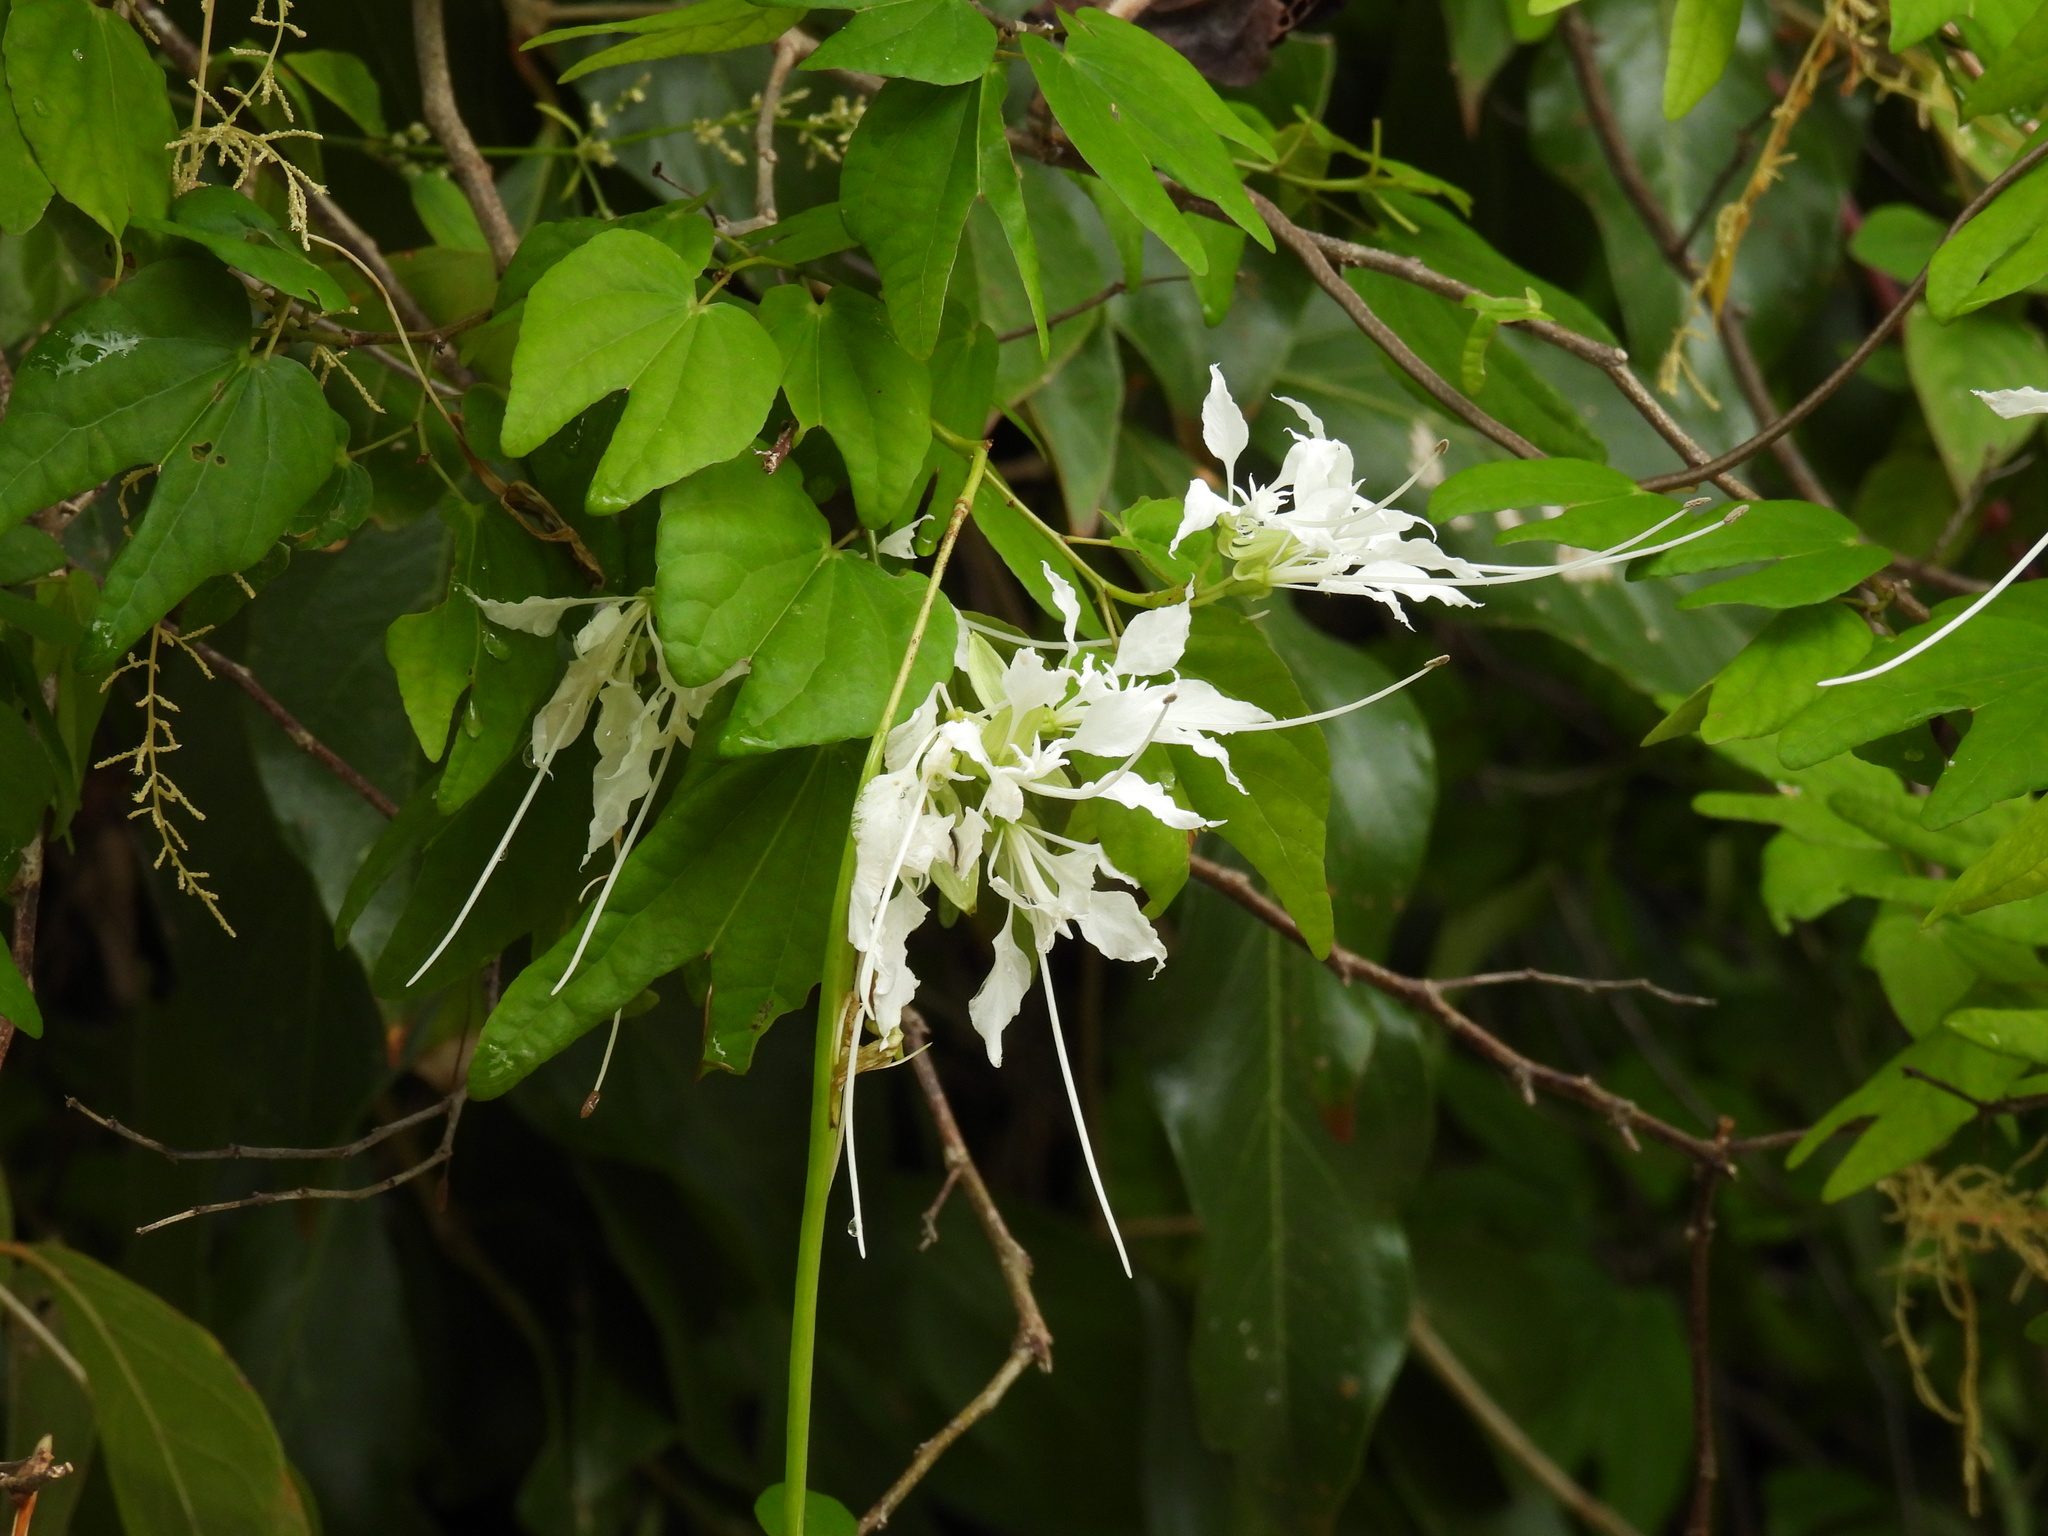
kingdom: Plantae
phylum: Tracheophyta
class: Magnoliopsida
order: Fabales
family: Fabaceae
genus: Bauhinia
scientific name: Bauhinia divaricata
